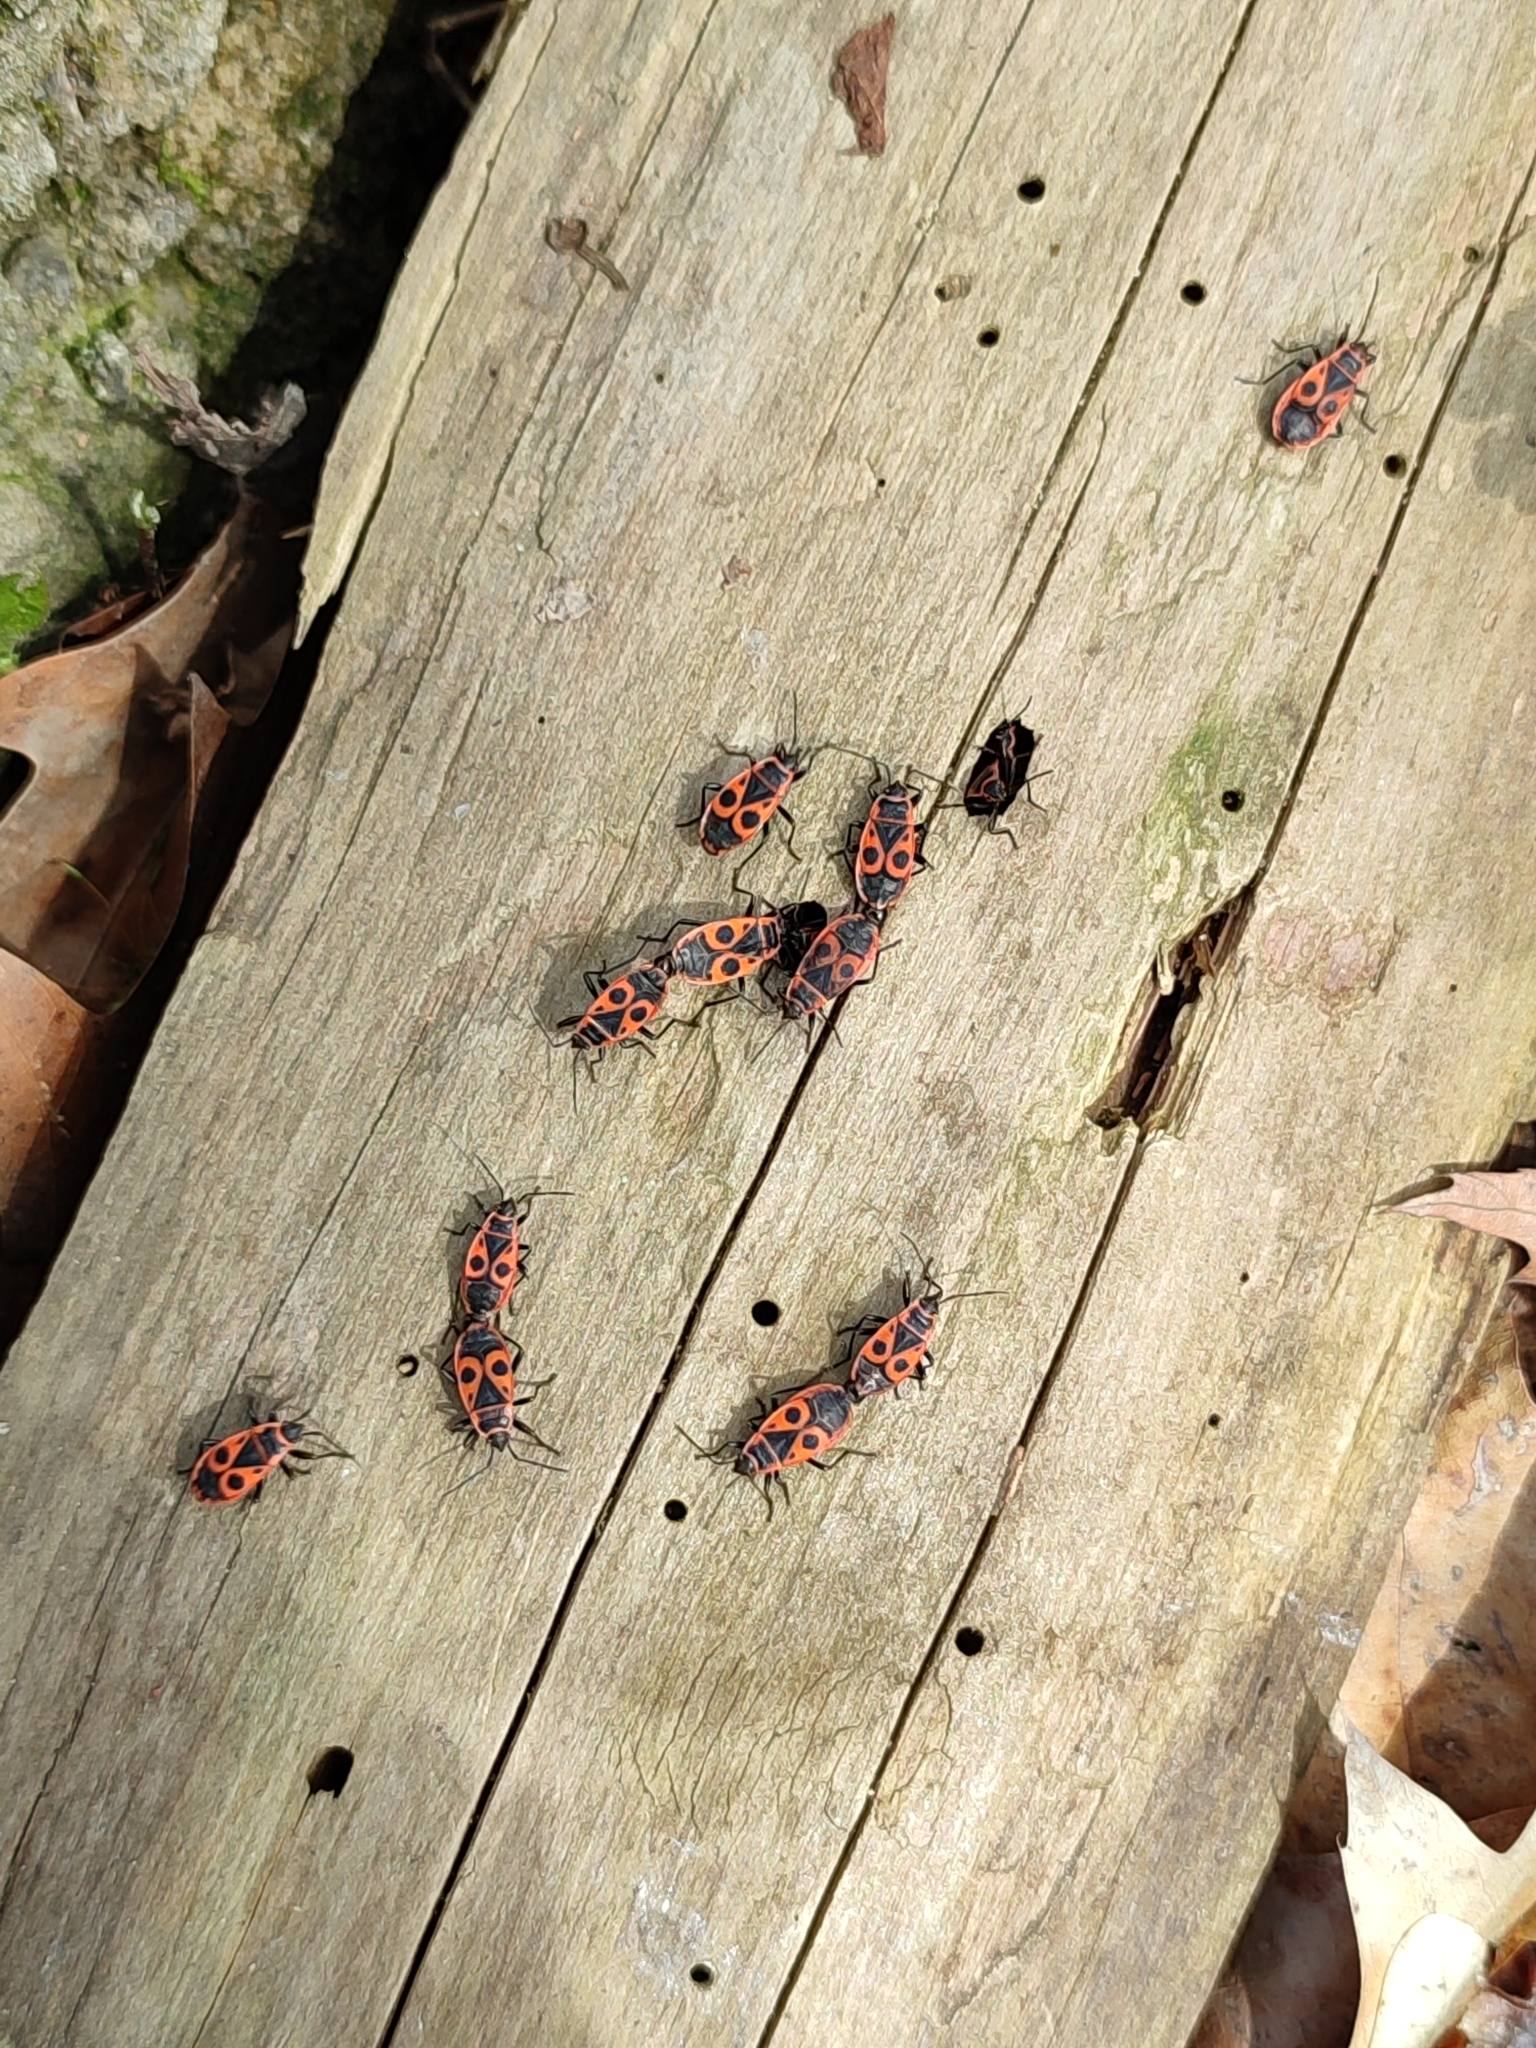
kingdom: Animalia
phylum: Arthropoda
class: Insecta
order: Hemiptera
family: Pyrrhocoridae
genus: Pyrrhocoris
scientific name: Pyrrhocoris apterus
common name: Firebug
